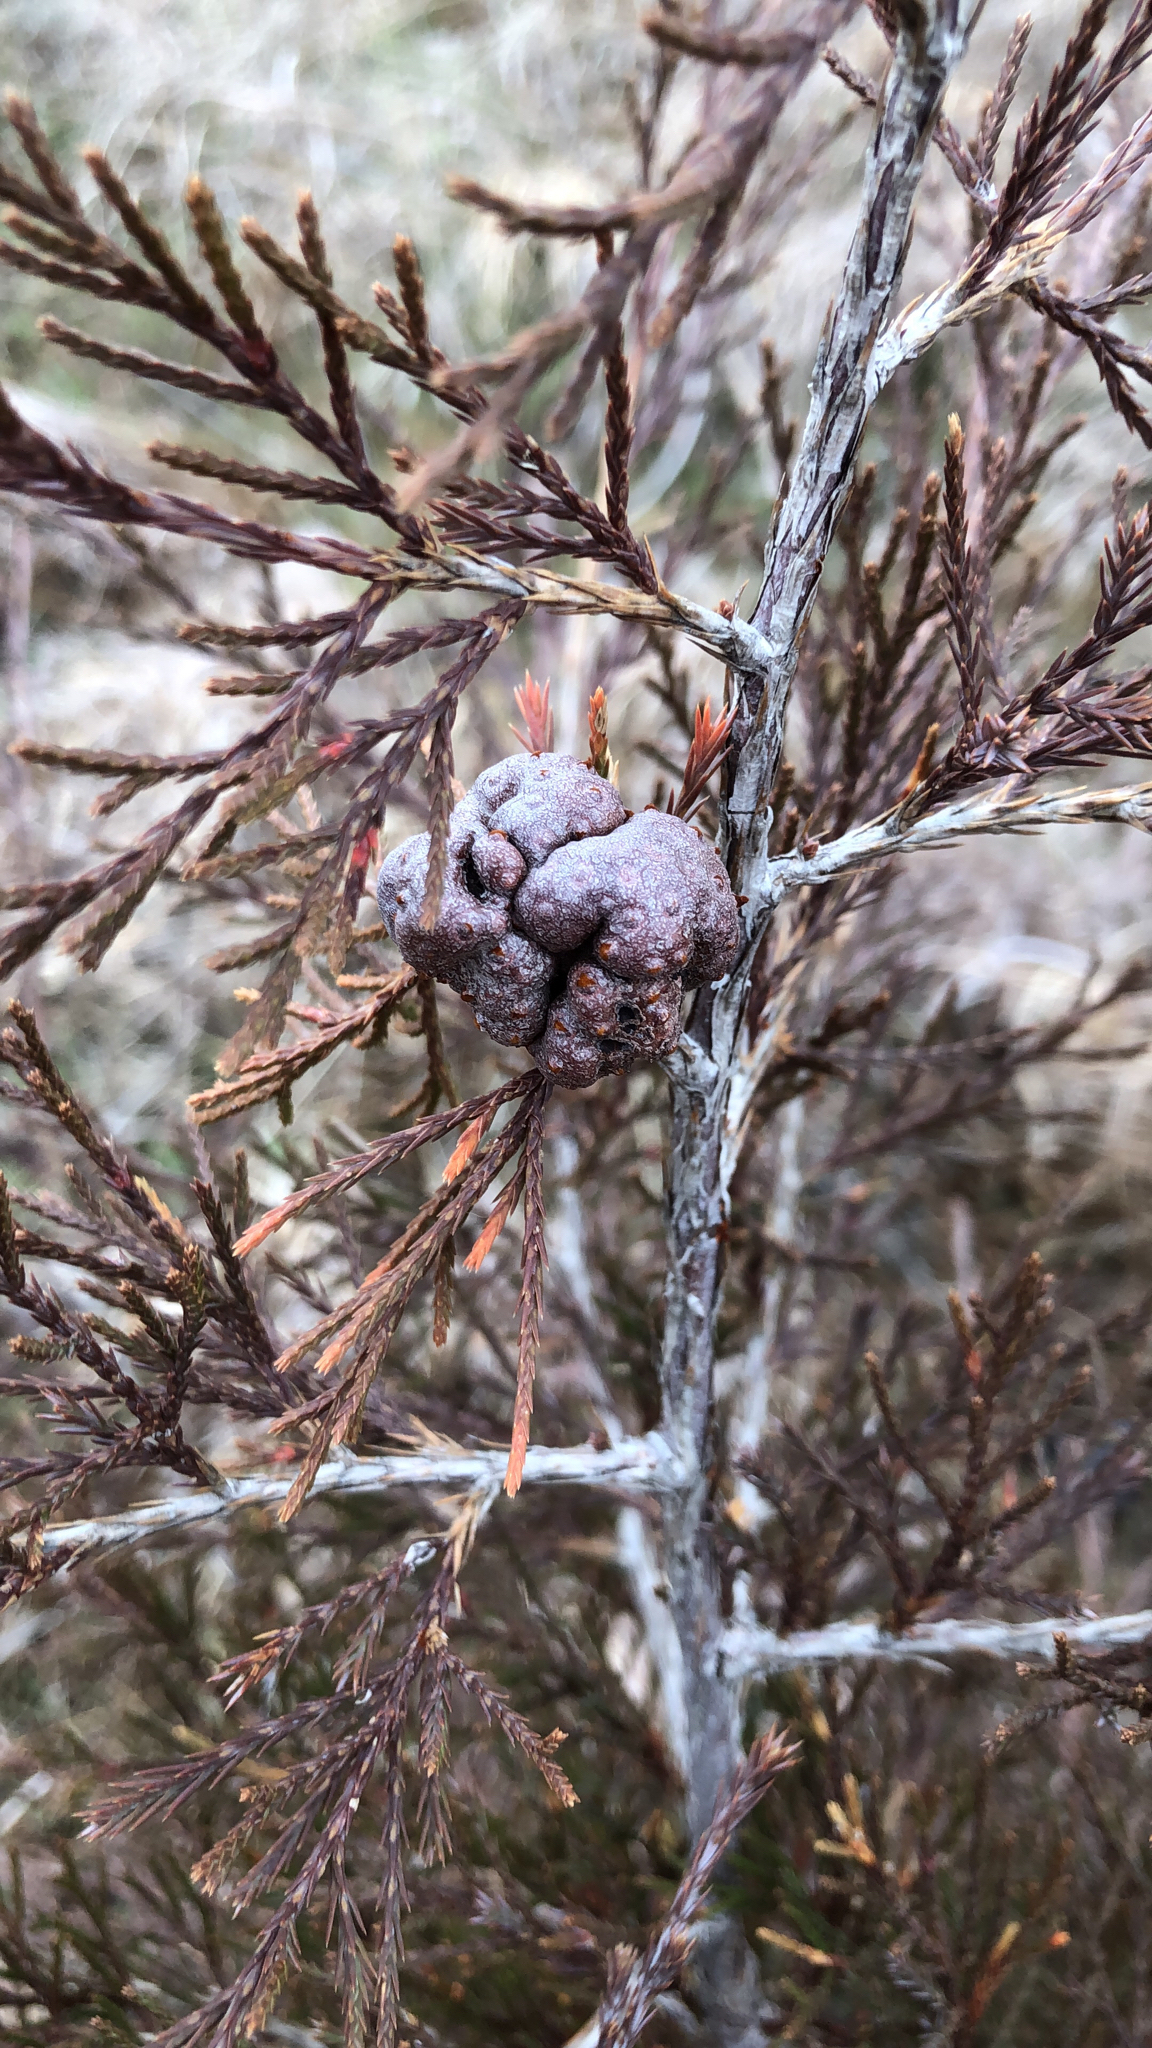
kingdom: Fungi
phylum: Basidiomycota
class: Pucciniomycetes
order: Pucciniales
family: Gymnosporangiaceae
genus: Gymnosporangium
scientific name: Gymnosporangium juniperi-virginianae
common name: Juniper-apple rust
